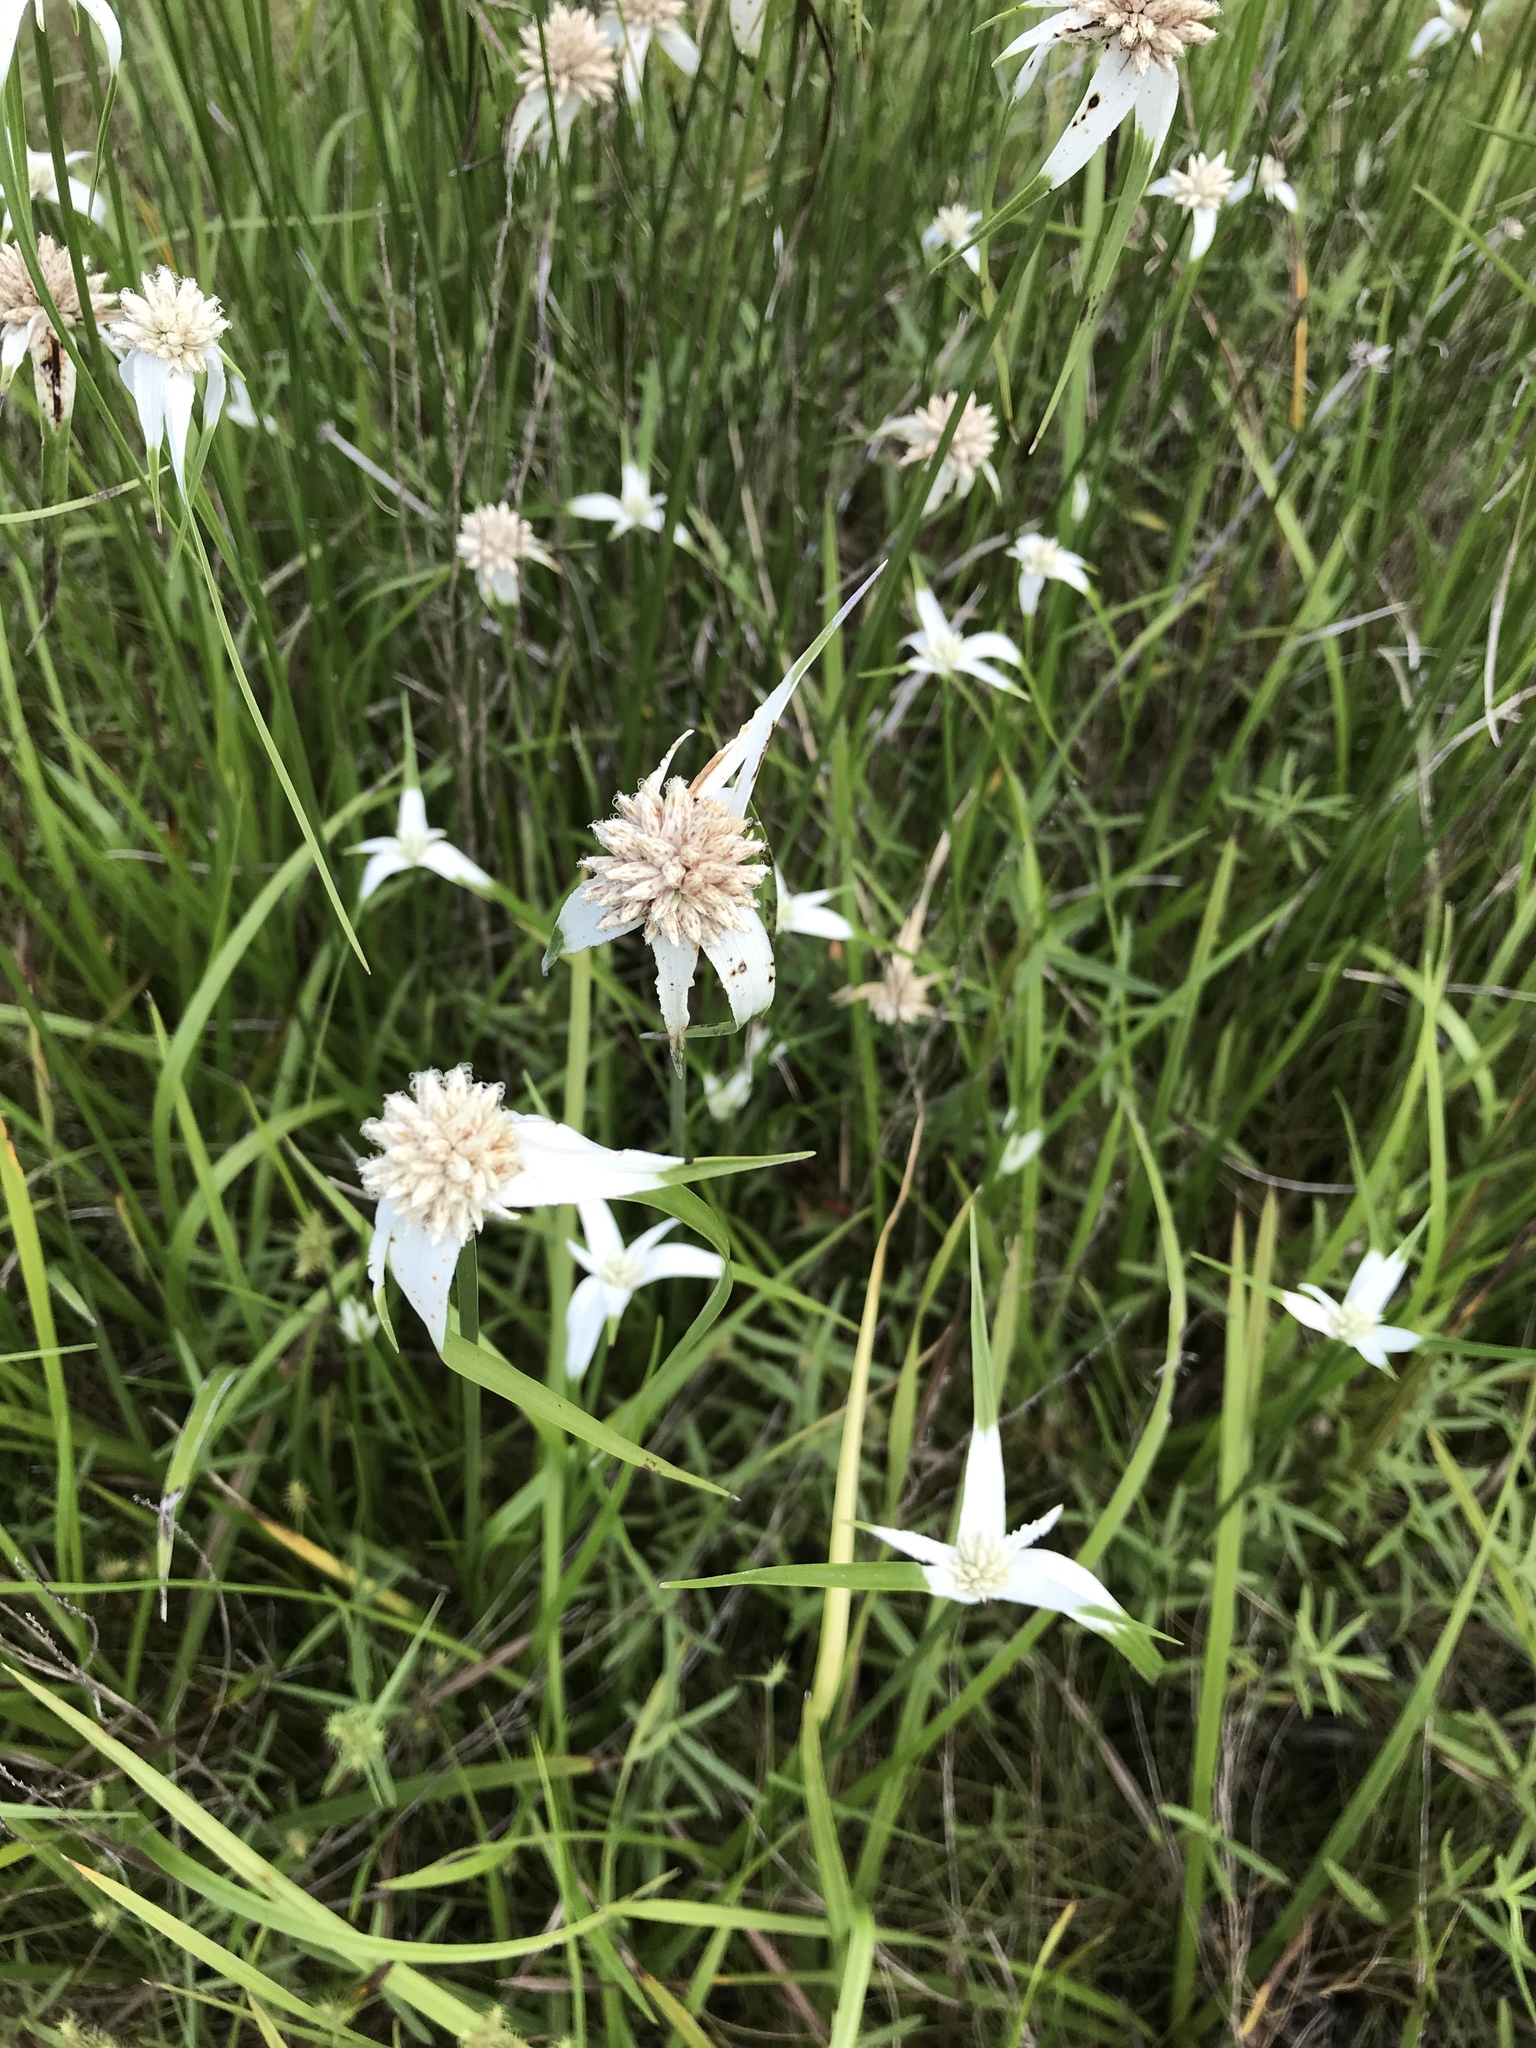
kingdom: Plantae
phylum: Tracheophyta
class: Liliopsida
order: Poales
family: Cyperaceae
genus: Rhynchospora
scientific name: Rhynchospora colorata
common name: Star sedge
